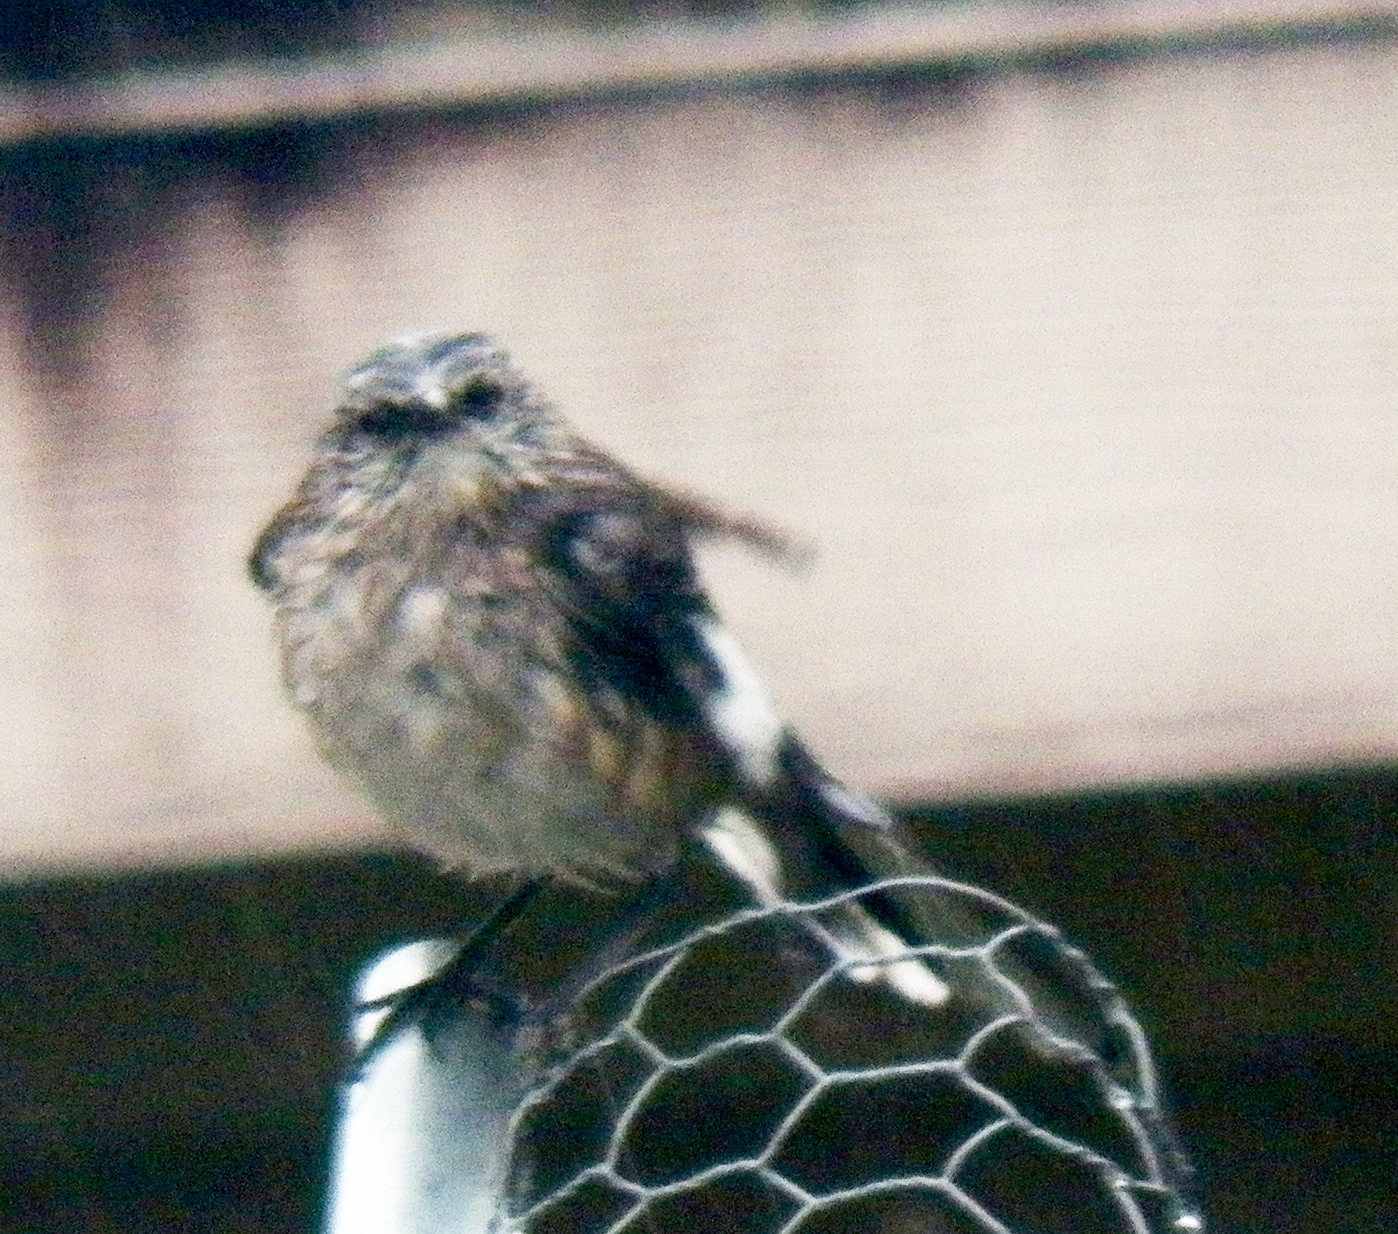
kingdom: Animalia
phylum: Chordata
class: Aves
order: Passeriformes
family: Mimidae
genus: Mimus
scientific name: Mimus polyglottos
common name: Northern mockingbird
